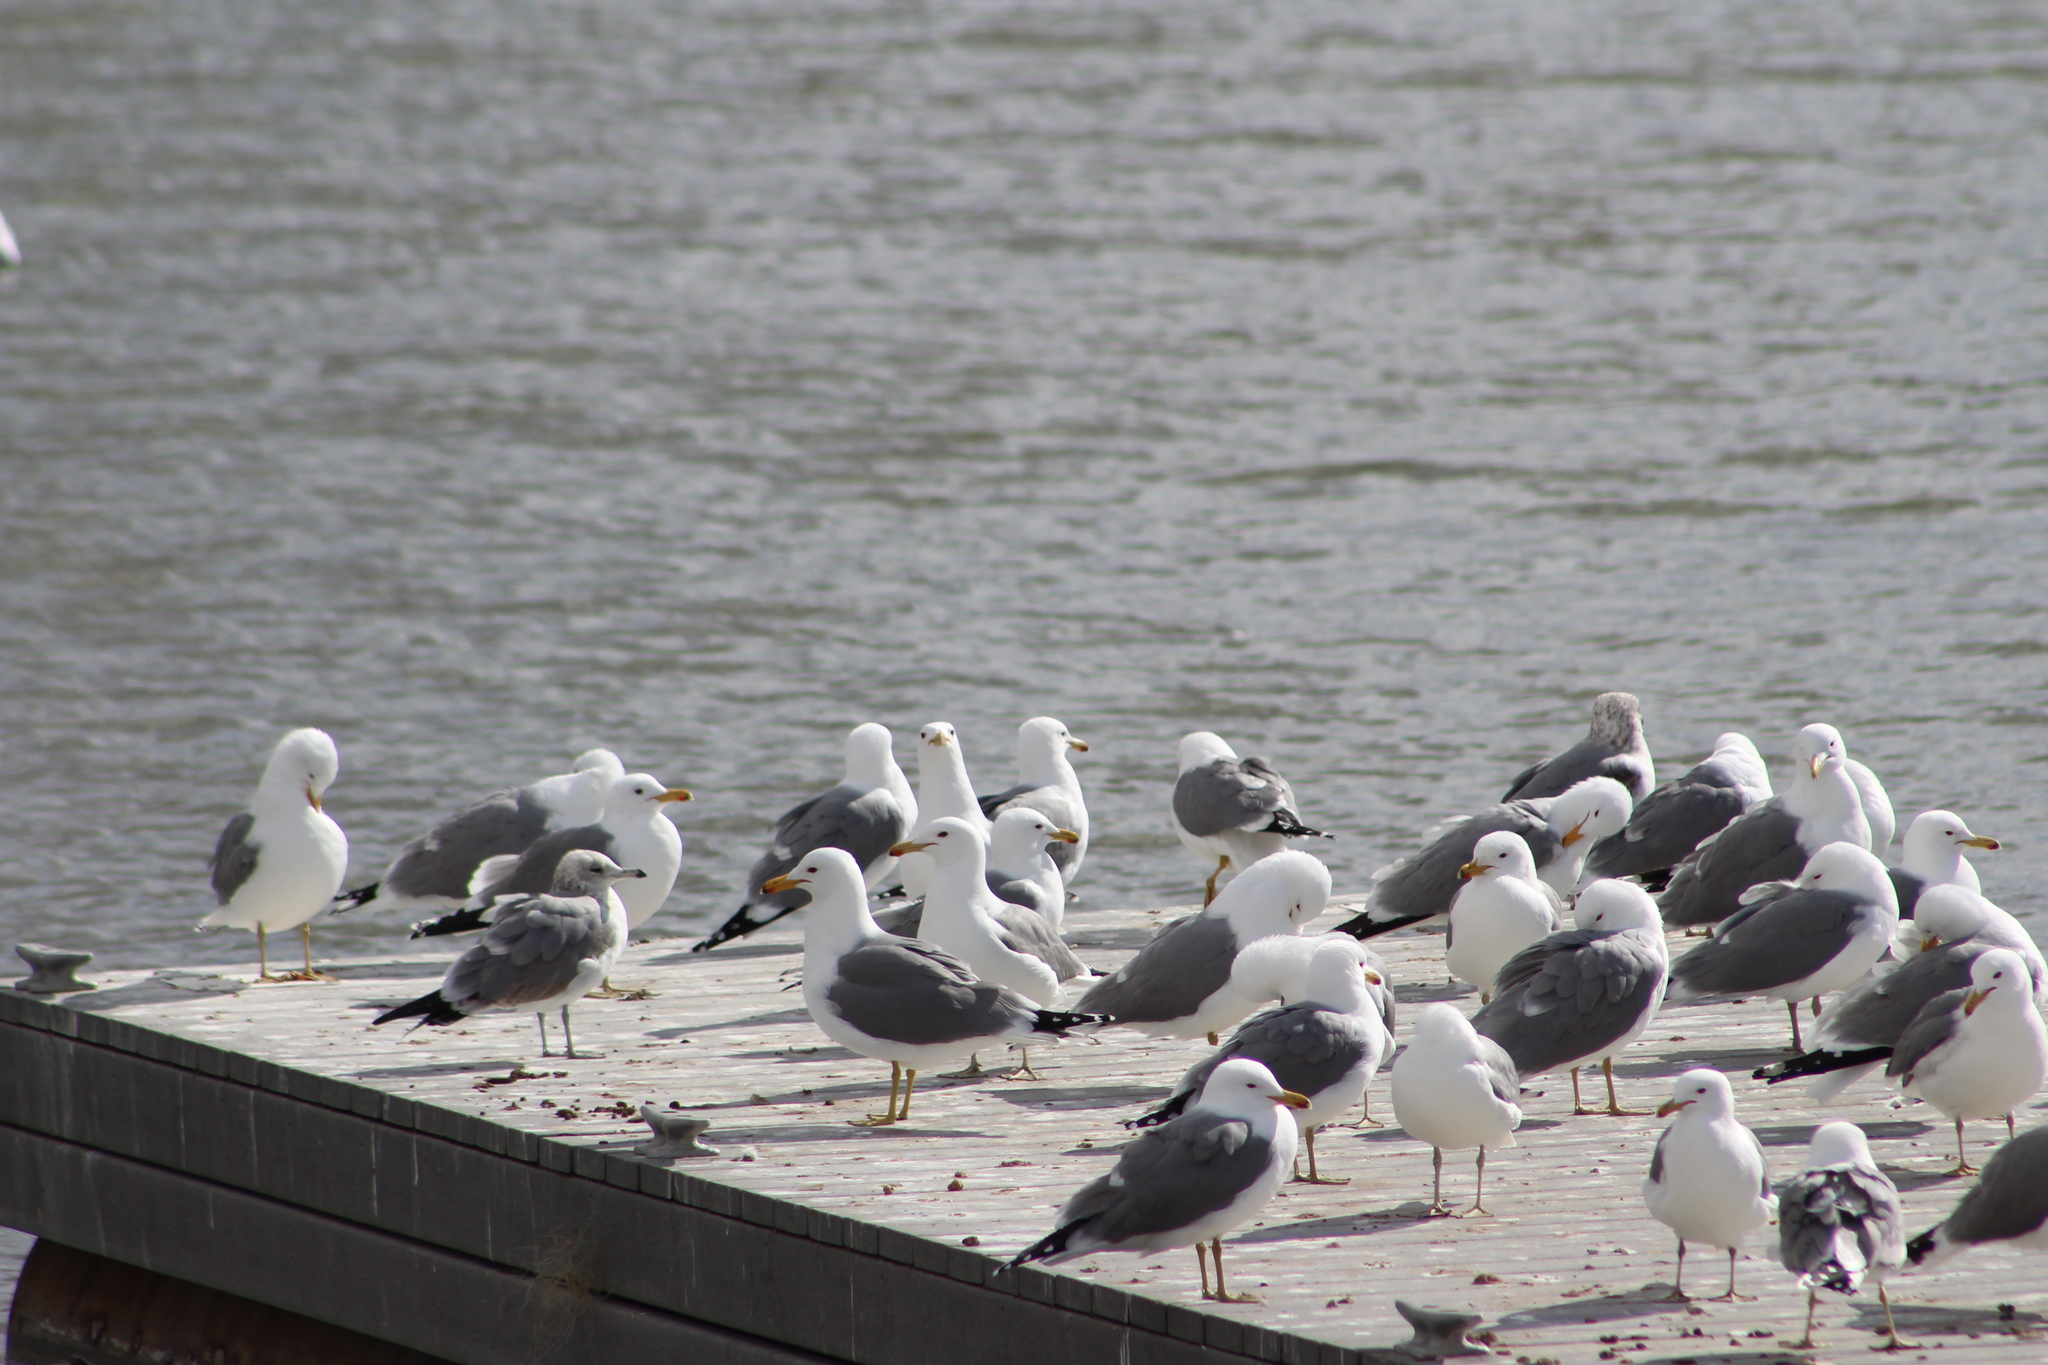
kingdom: Animalia
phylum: Chordata
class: Aves
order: Charadriiformes
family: Laridae
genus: Larus
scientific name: Larus californicus
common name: California gull
